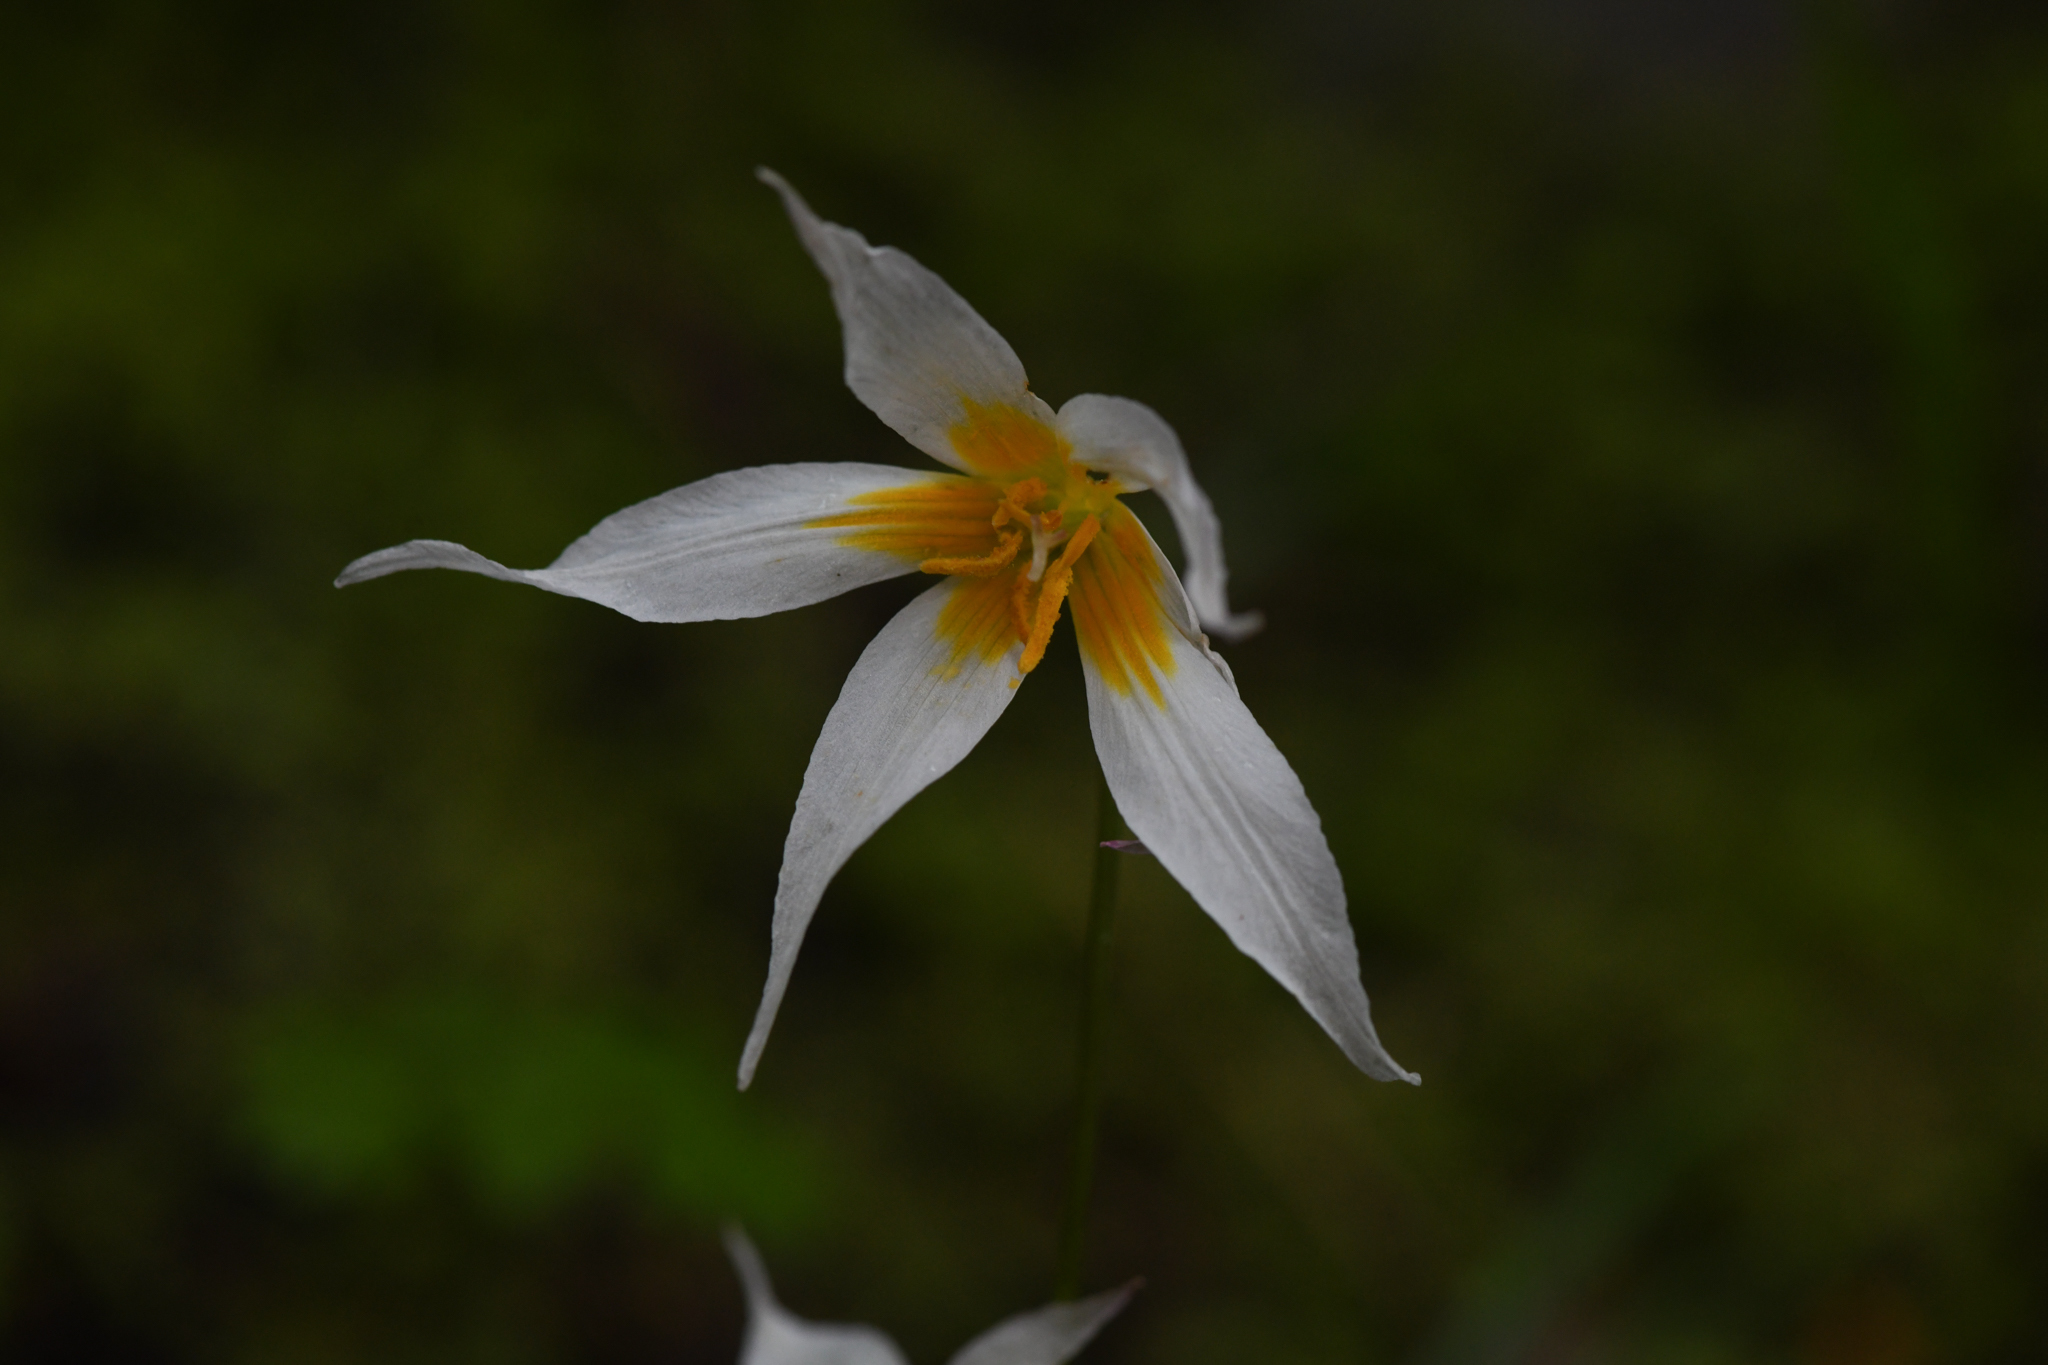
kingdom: Plantae
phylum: Tracheophyta
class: Liliopsida
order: Liliales
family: Liliaceae
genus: Erythronium
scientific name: Erythronium shastense
